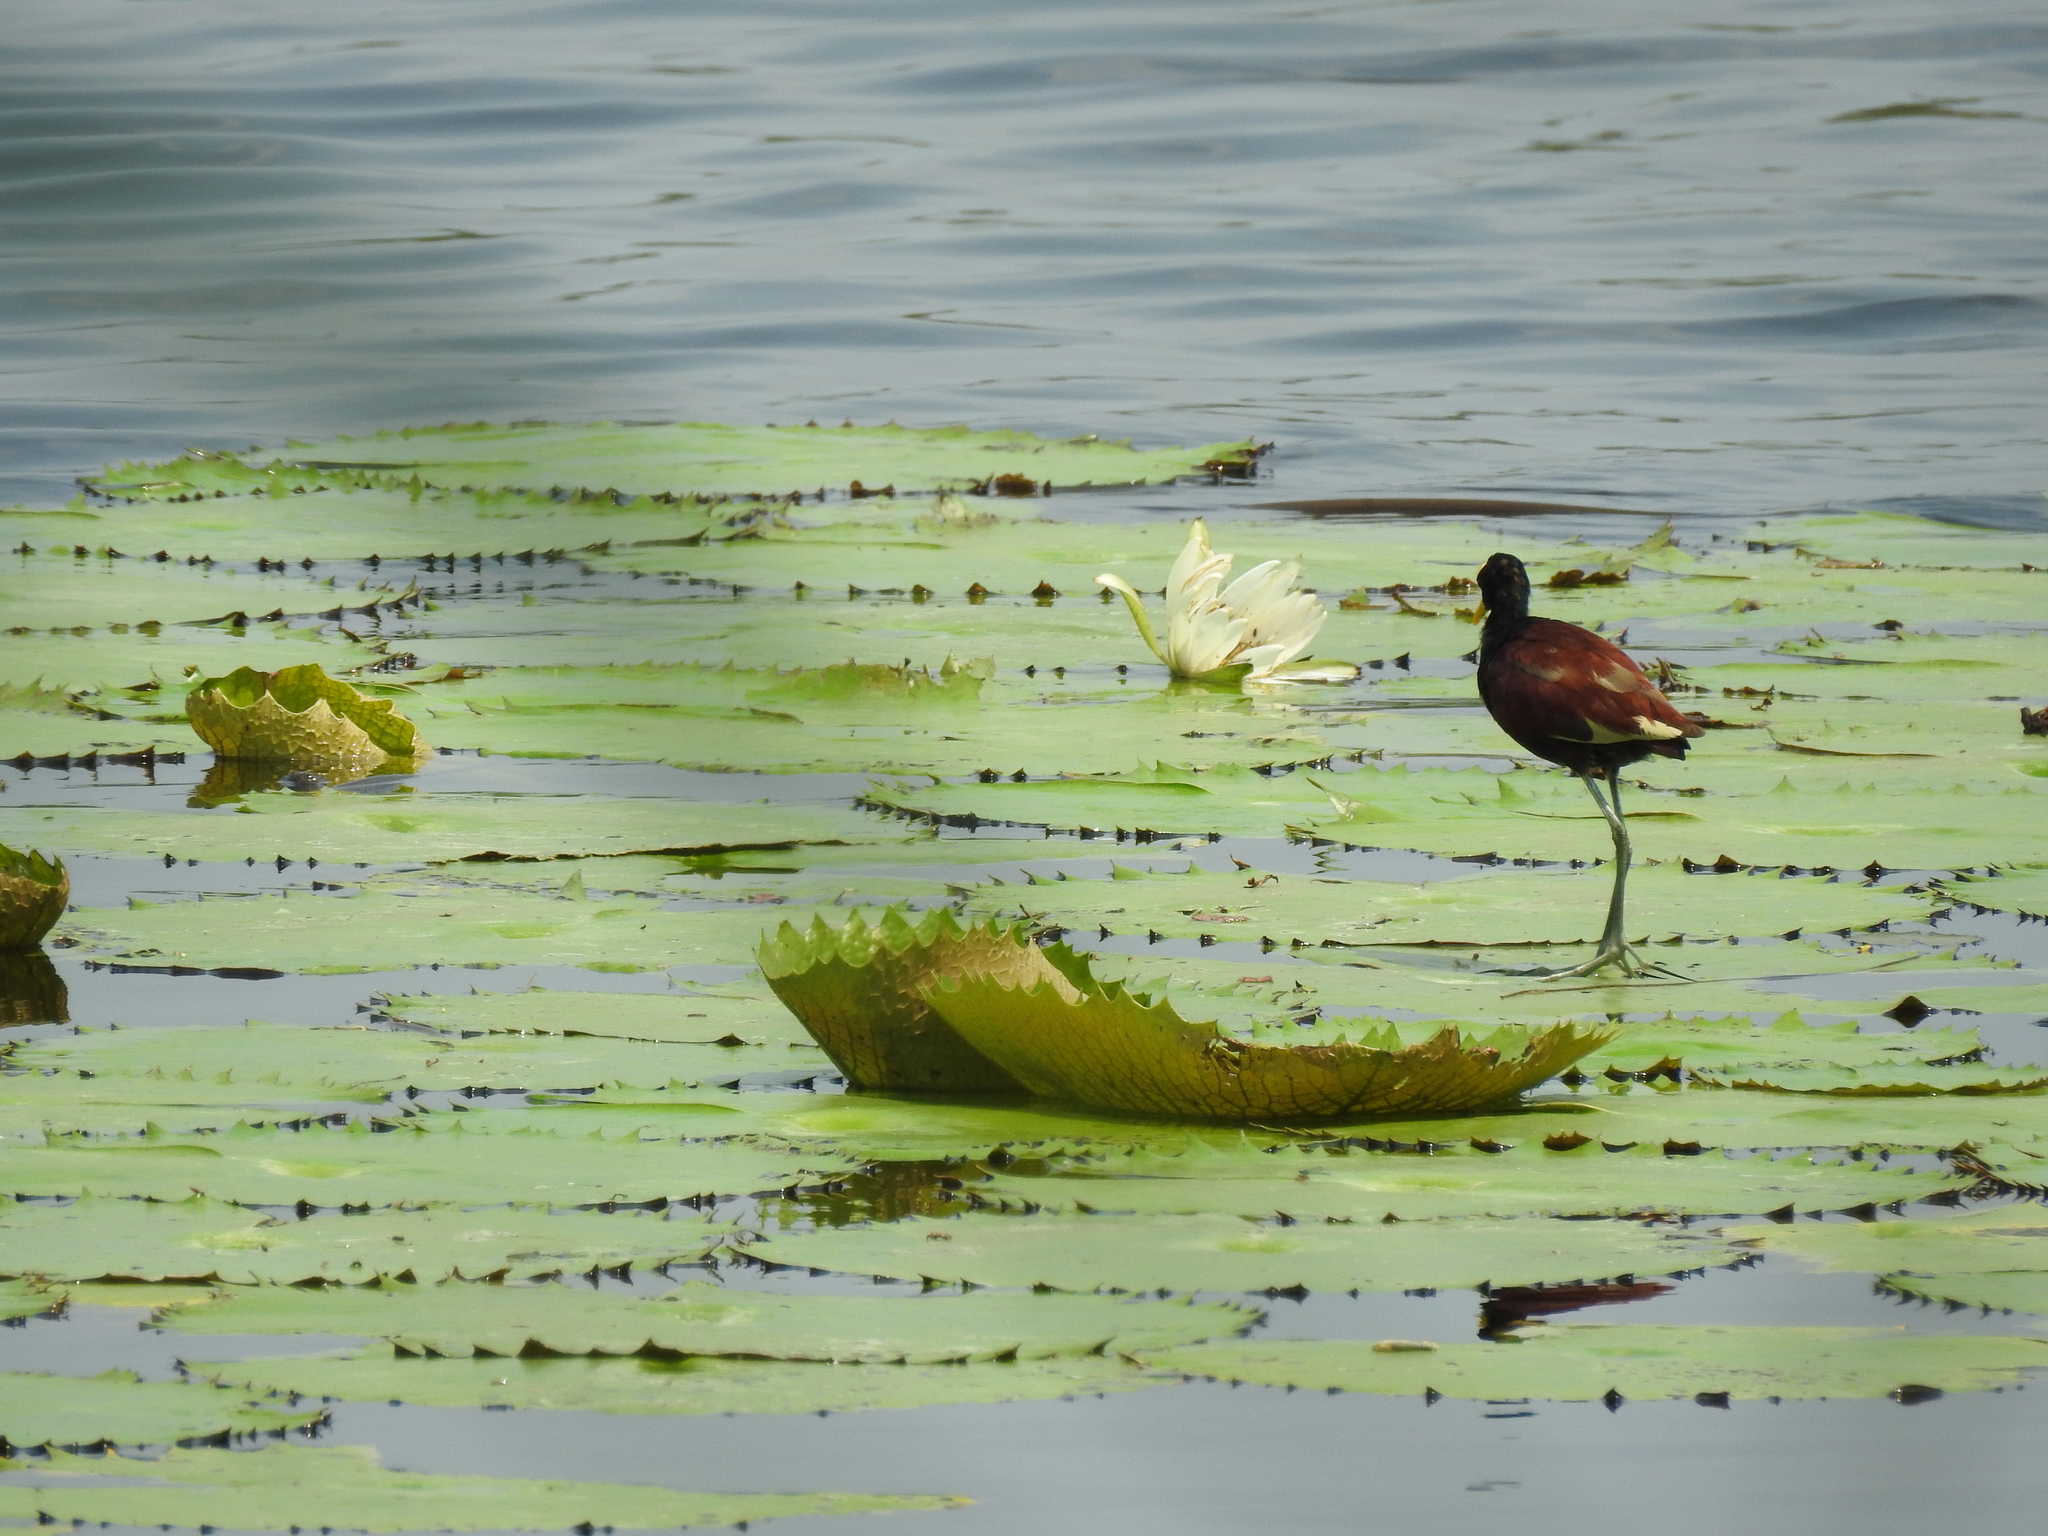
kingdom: Animalia
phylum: Chordata
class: Aves
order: Charadriiformes
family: Jacanidae
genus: Jacana
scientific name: Jacana spinosa
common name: Northern jacana
